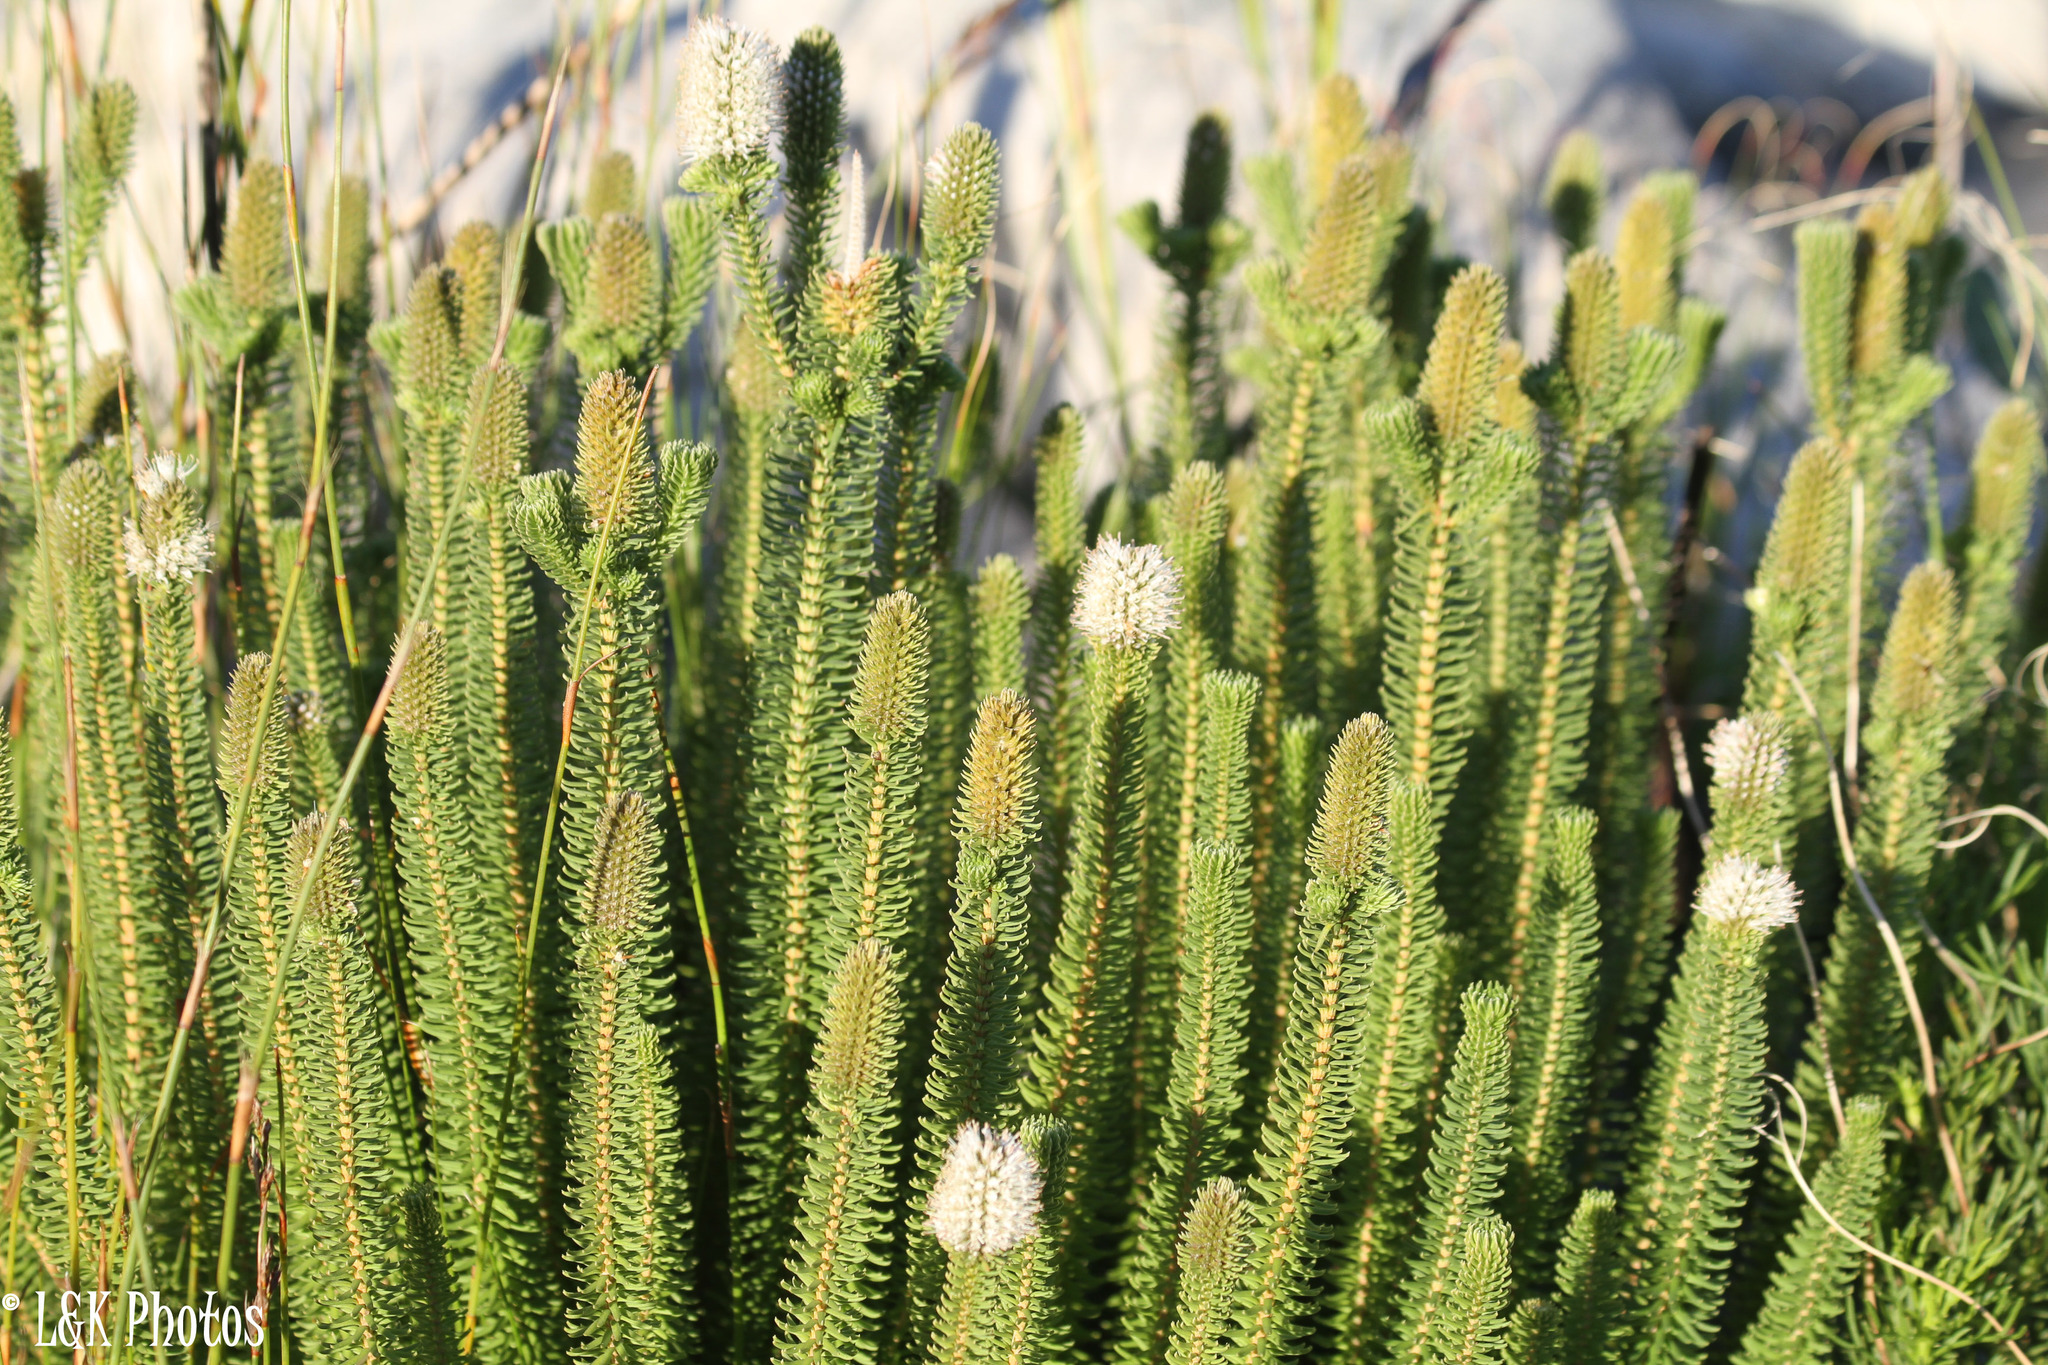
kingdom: Plantae
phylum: Tracheophyta
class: Magnoliopsida
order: Lamiales
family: Stilbaceae
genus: Stilbe
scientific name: Stilbe vestita
